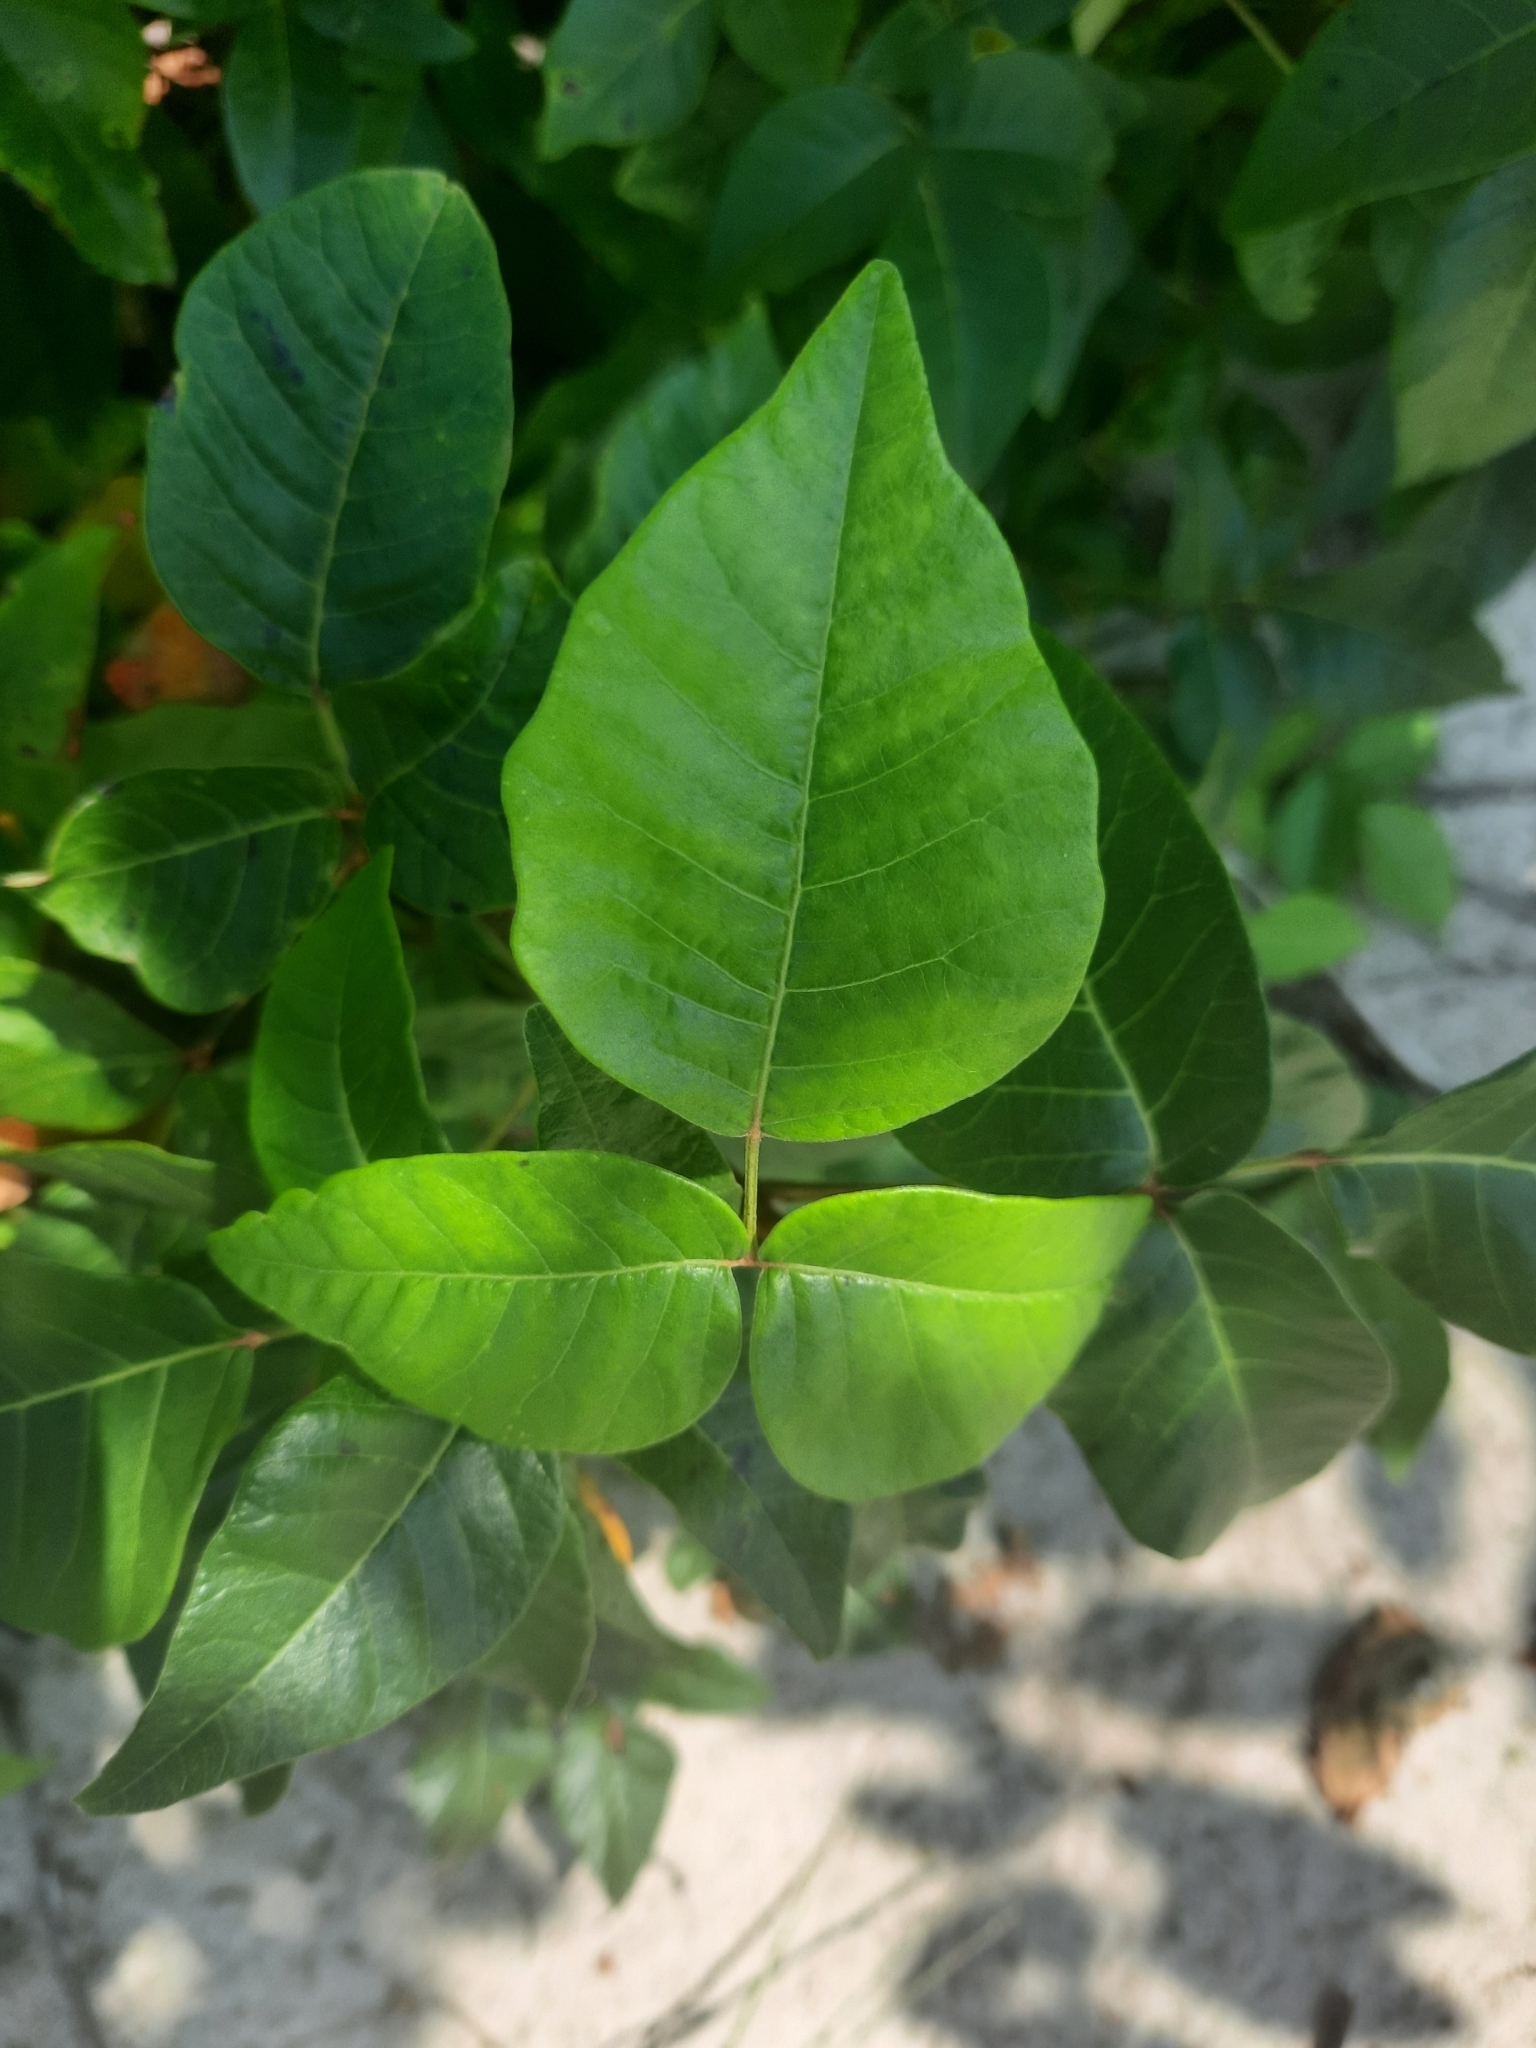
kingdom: Plantae
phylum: Tracheophyta
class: Magnoliopsida
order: Sapindales
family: Anacardiaceae
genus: Toxicodendron
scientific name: Toxicodendron radicans
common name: Poison ivy
